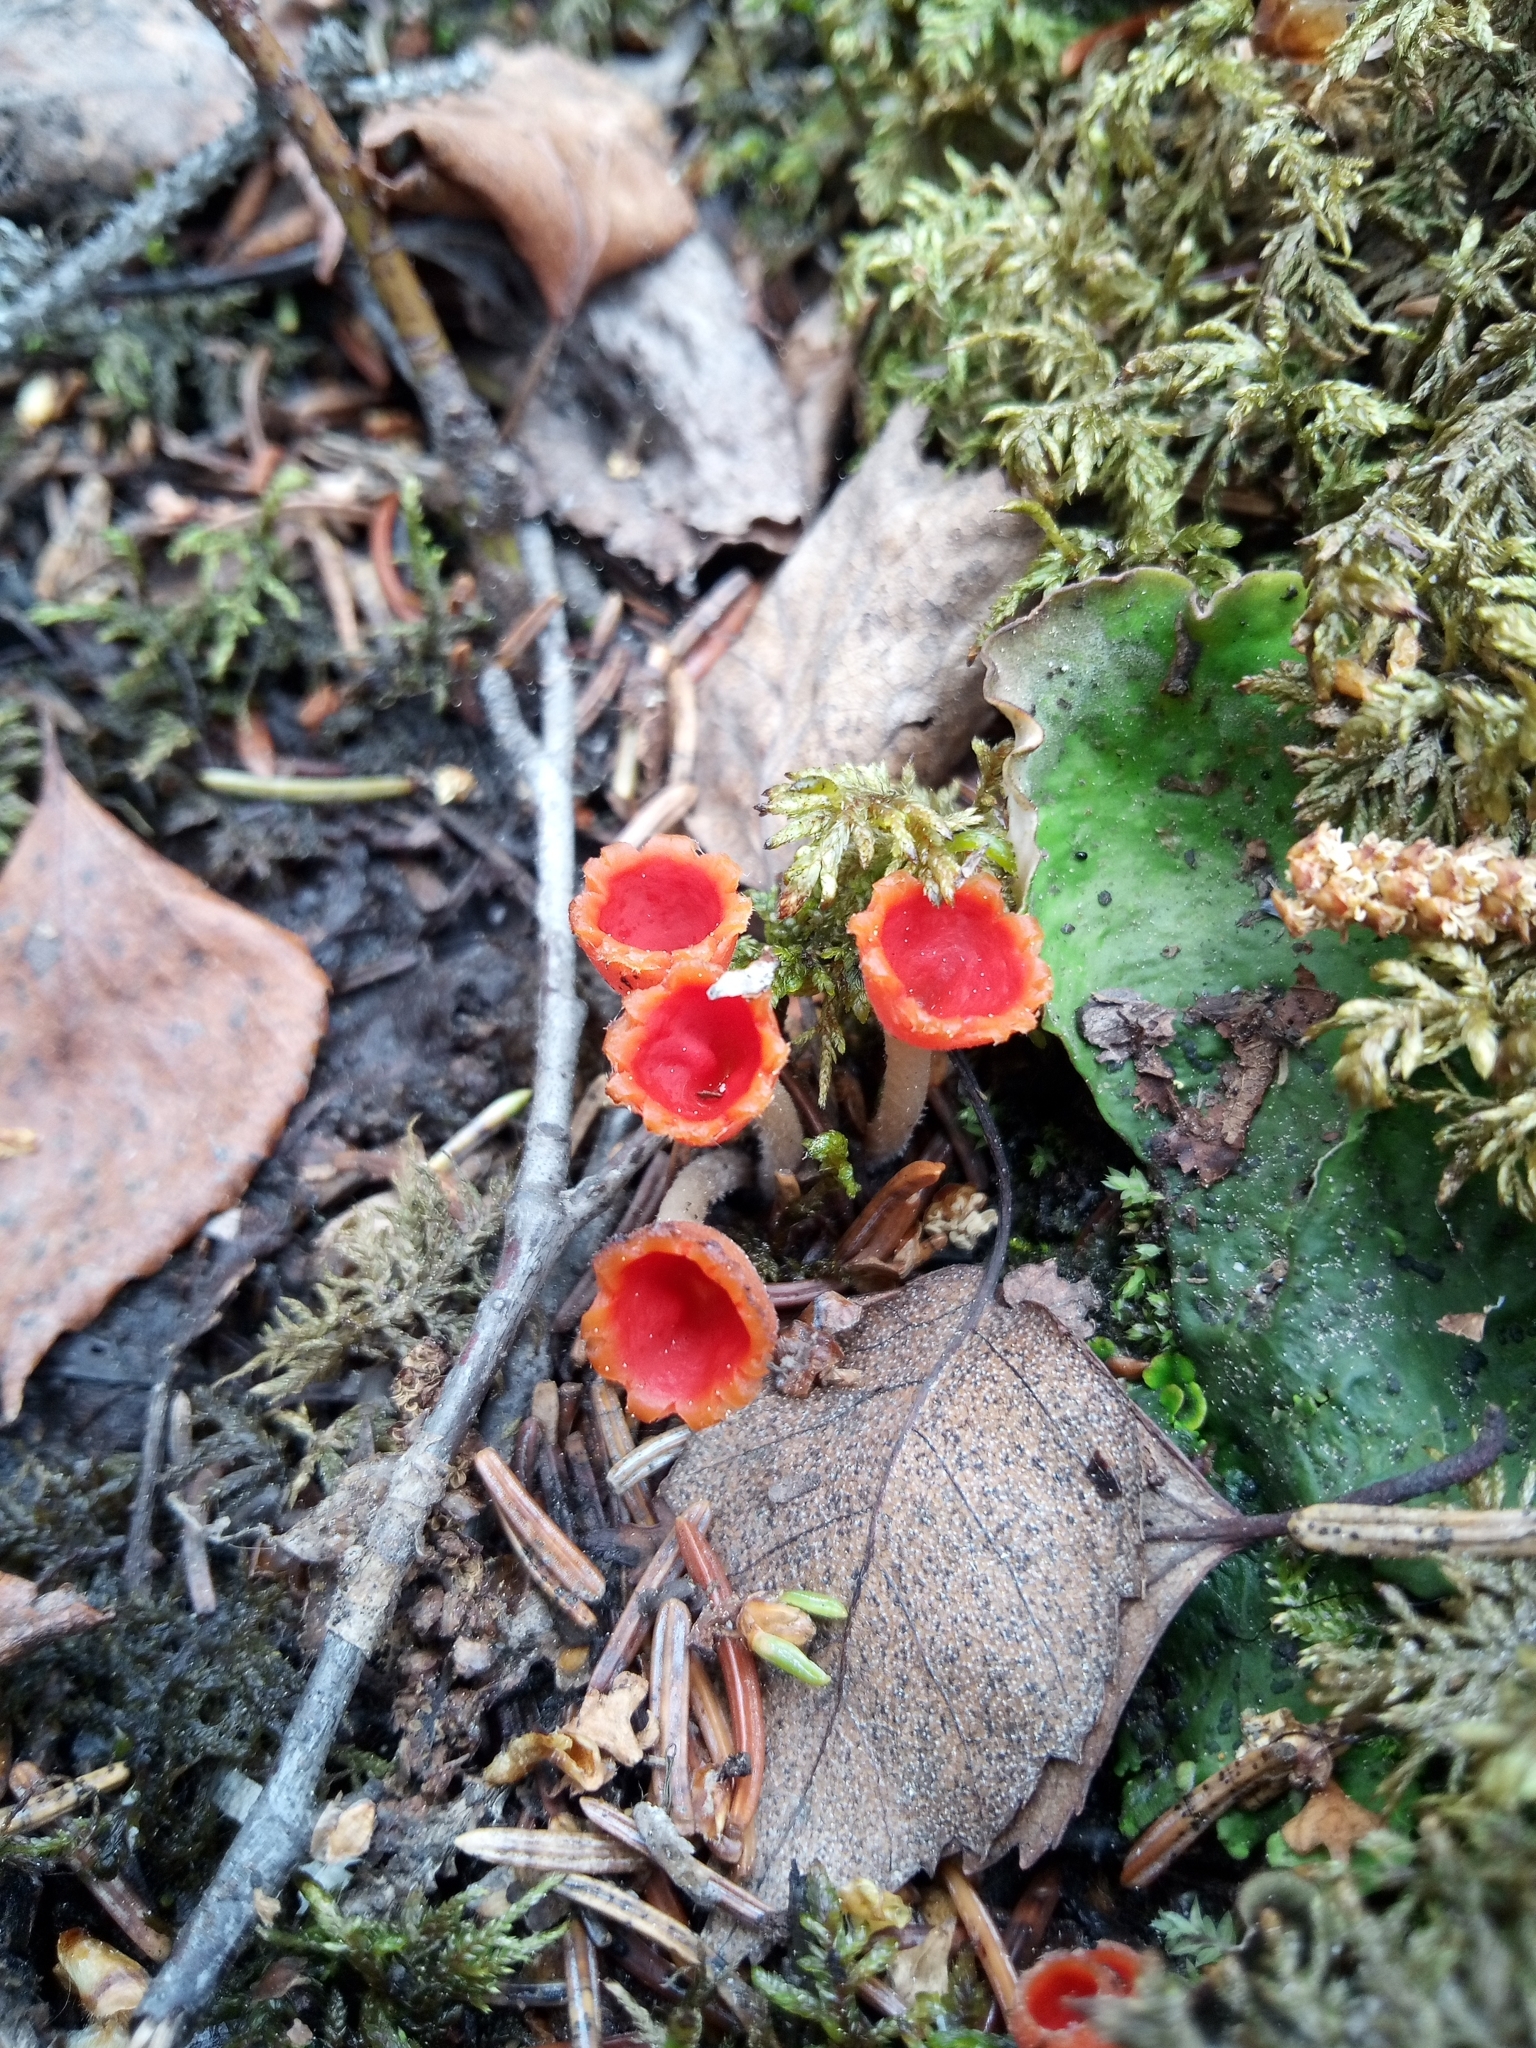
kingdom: Fungi
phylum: Ascomycota
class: Pezizomycetes
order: Pezizales
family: Sarcoscyphaceae
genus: Microstoma
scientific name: Microstoma protractum
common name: Rosy goblet
